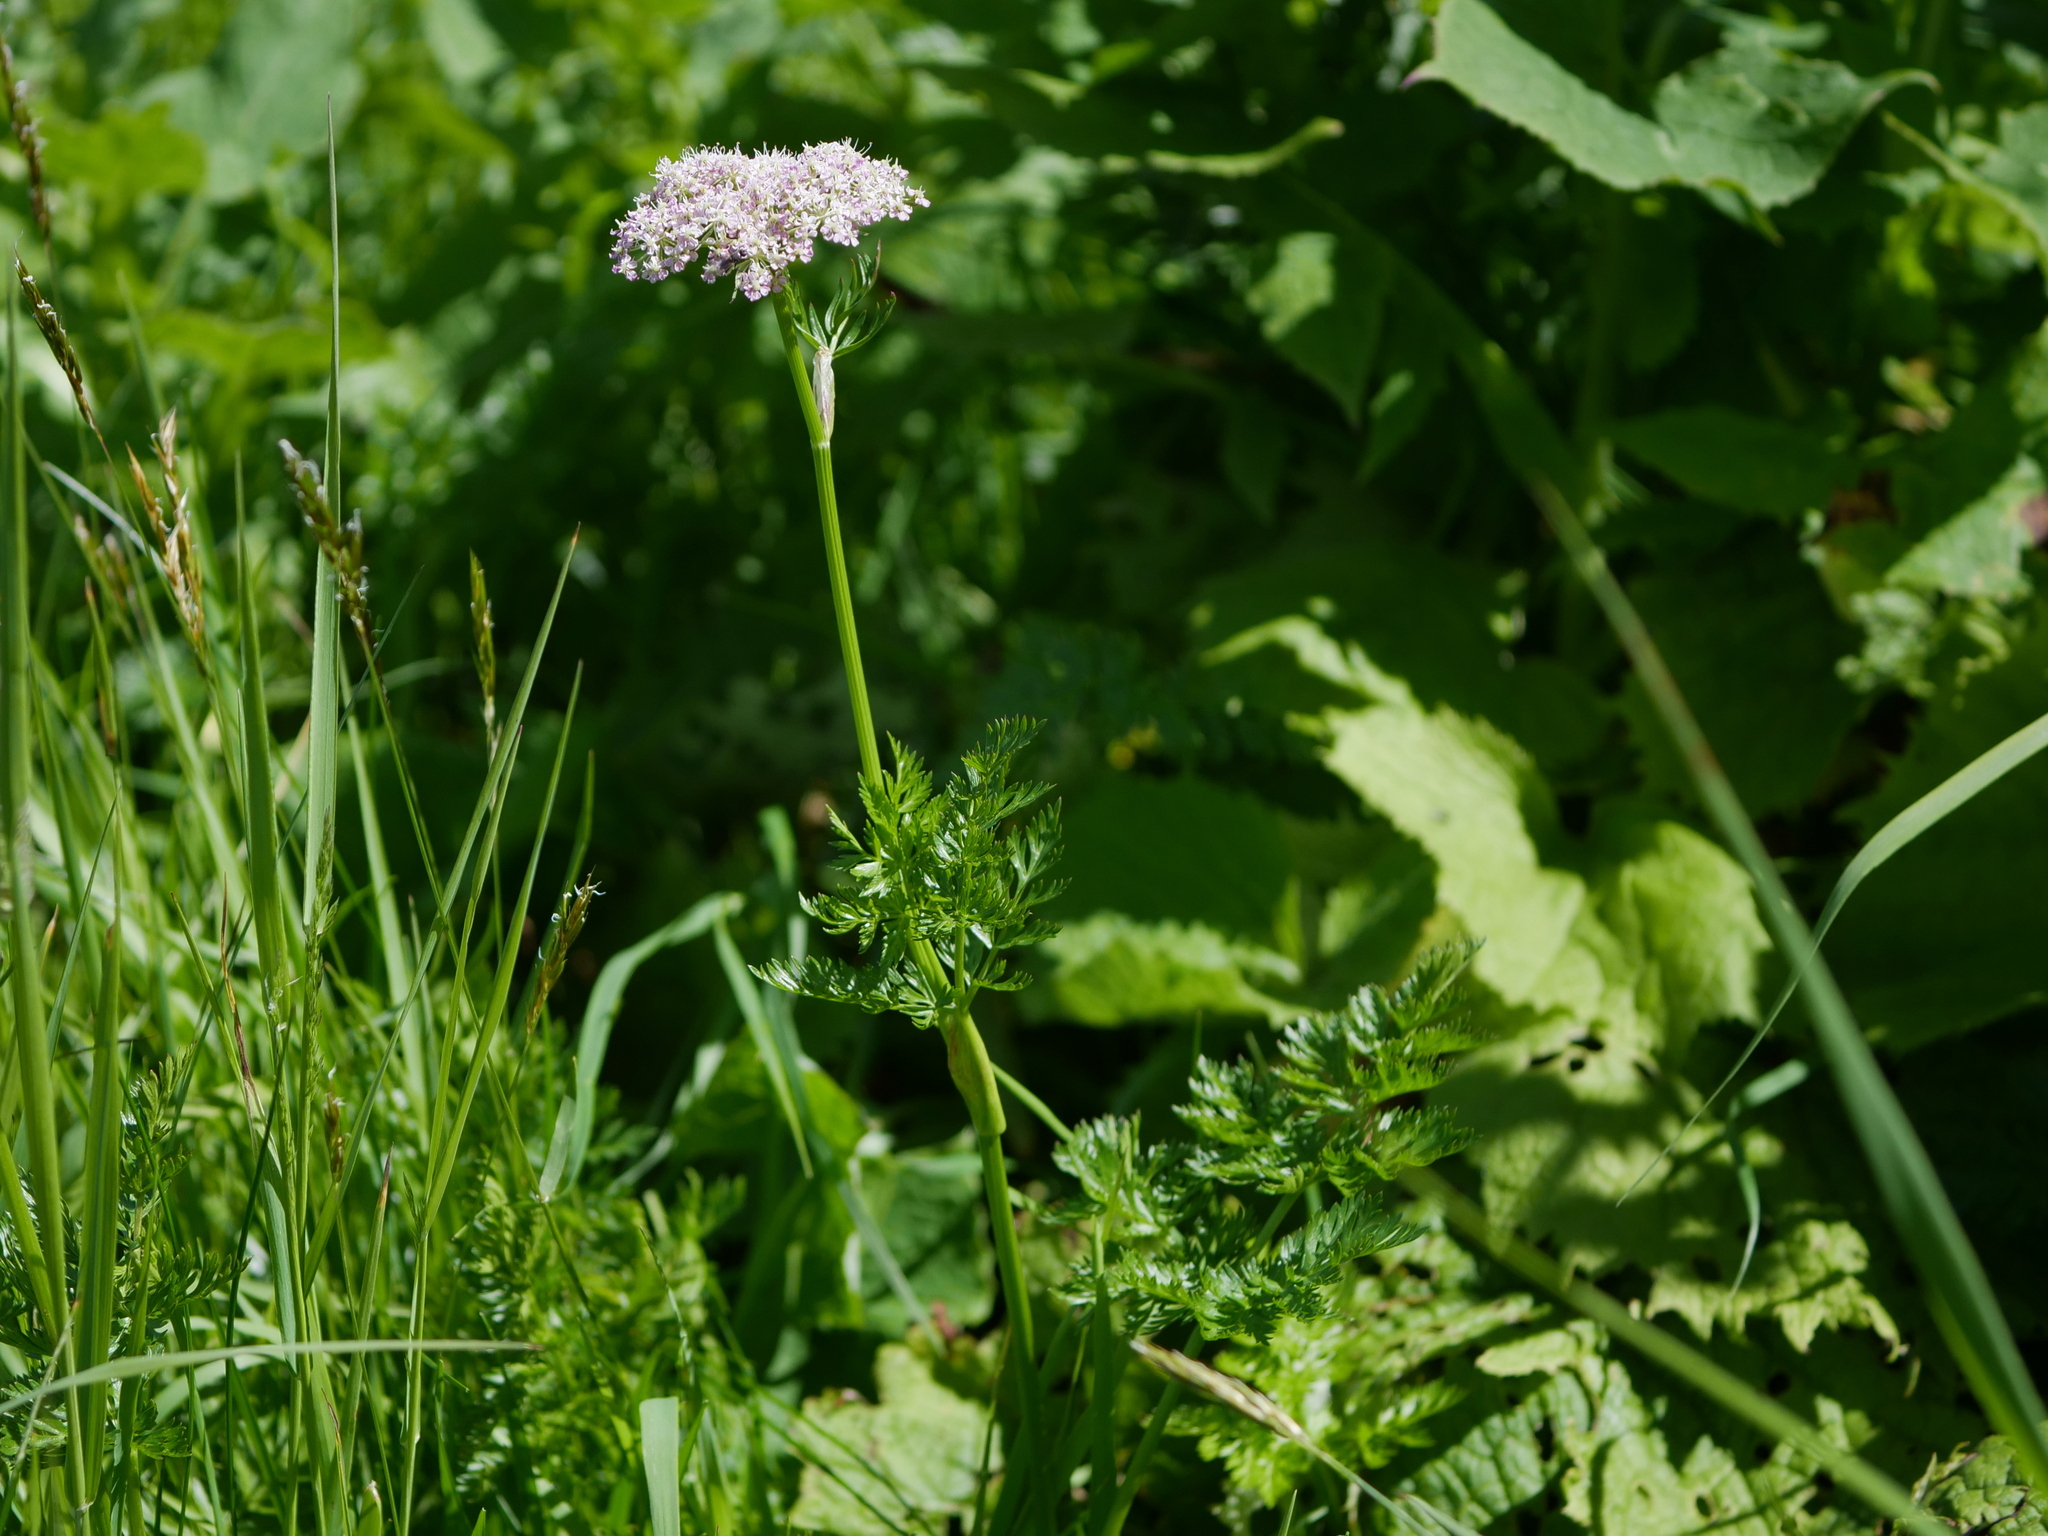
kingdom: Plantae
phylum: Tracheophyta
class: Magnoliopsida
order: Apiales
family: Apiaceae
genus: Mutellina
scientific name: Mutellina adonidifolia
